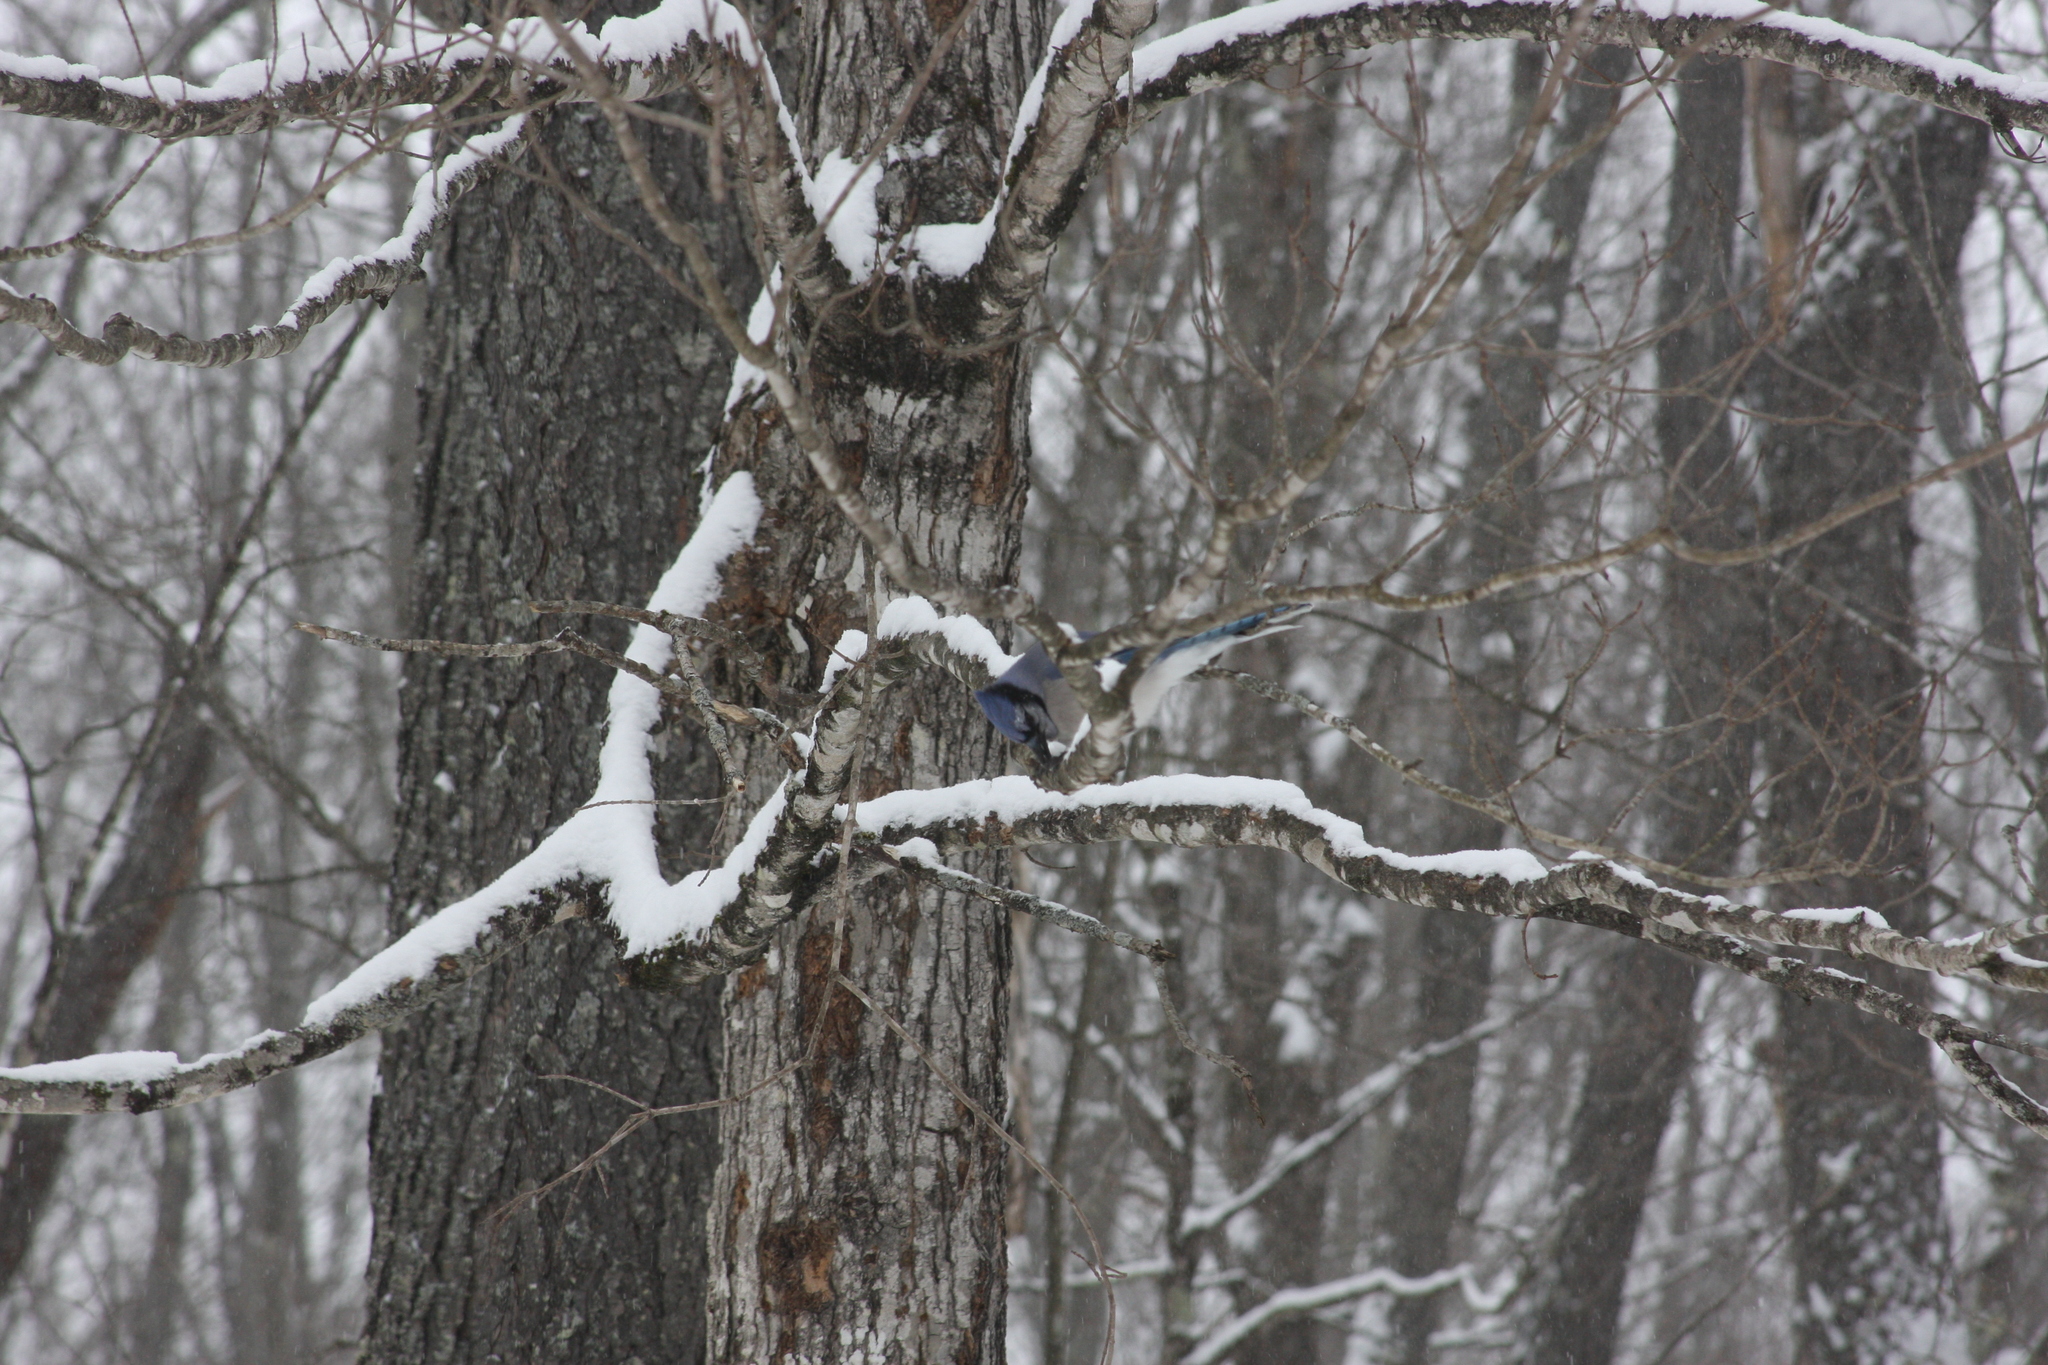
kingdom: Animalia
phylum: Chordata
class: Aves
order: Passeriformes
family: Corvidae
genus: Cyanocitta
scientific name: Cyanocitta cristata
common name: Blue jay
